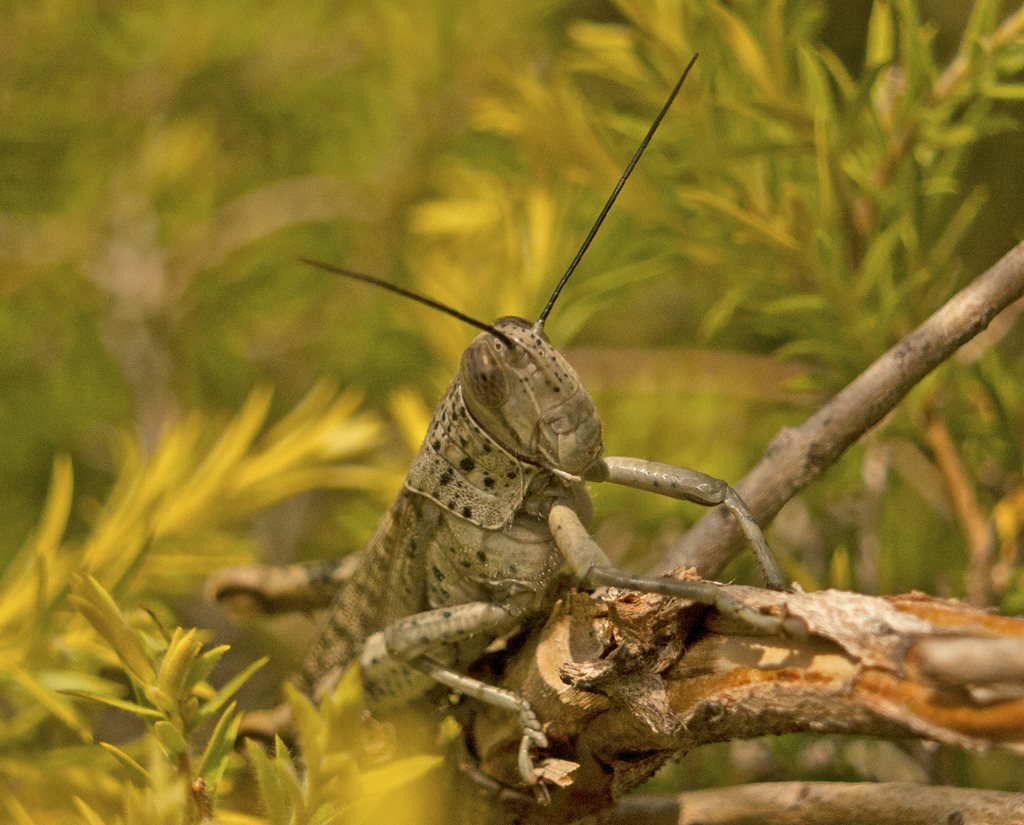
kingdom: Animalia
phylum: Arthropoda
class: Insecta
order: Orthoptera
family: Acrididae
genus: Valanga
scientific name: Valanga irregularis
